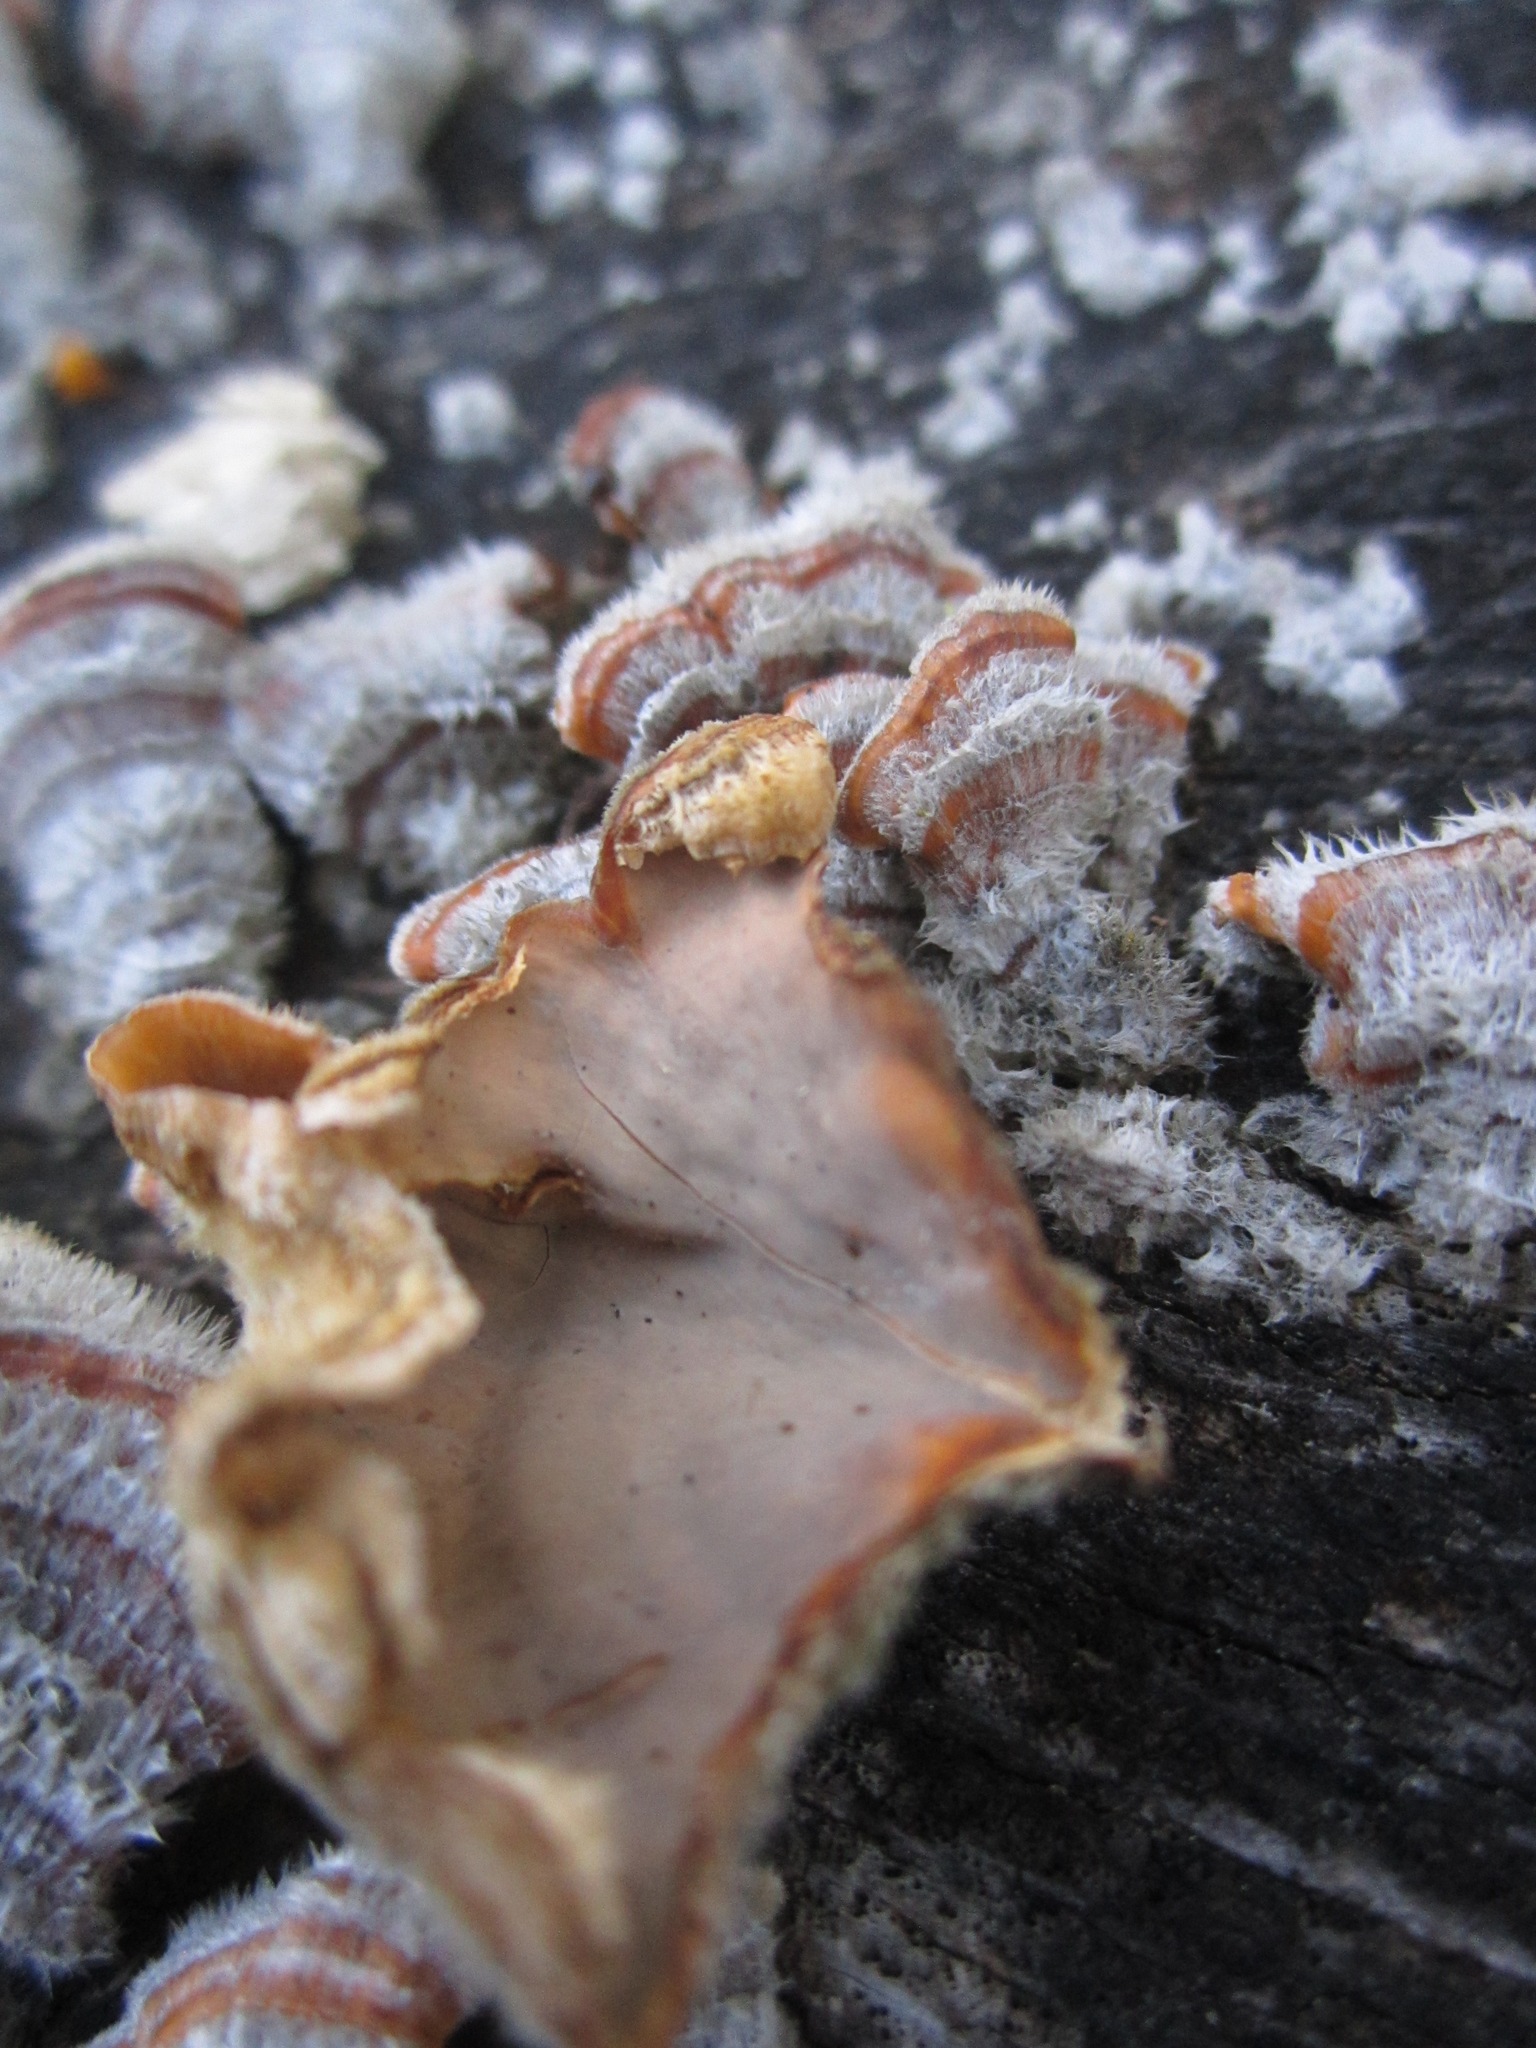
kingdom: Fungi
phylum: Basidiomycota
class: Agaricomycetes
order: Russulales
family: Stereaceae
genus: Stereum
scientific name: Stereum hirsutum
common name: Hairy curtain crust
